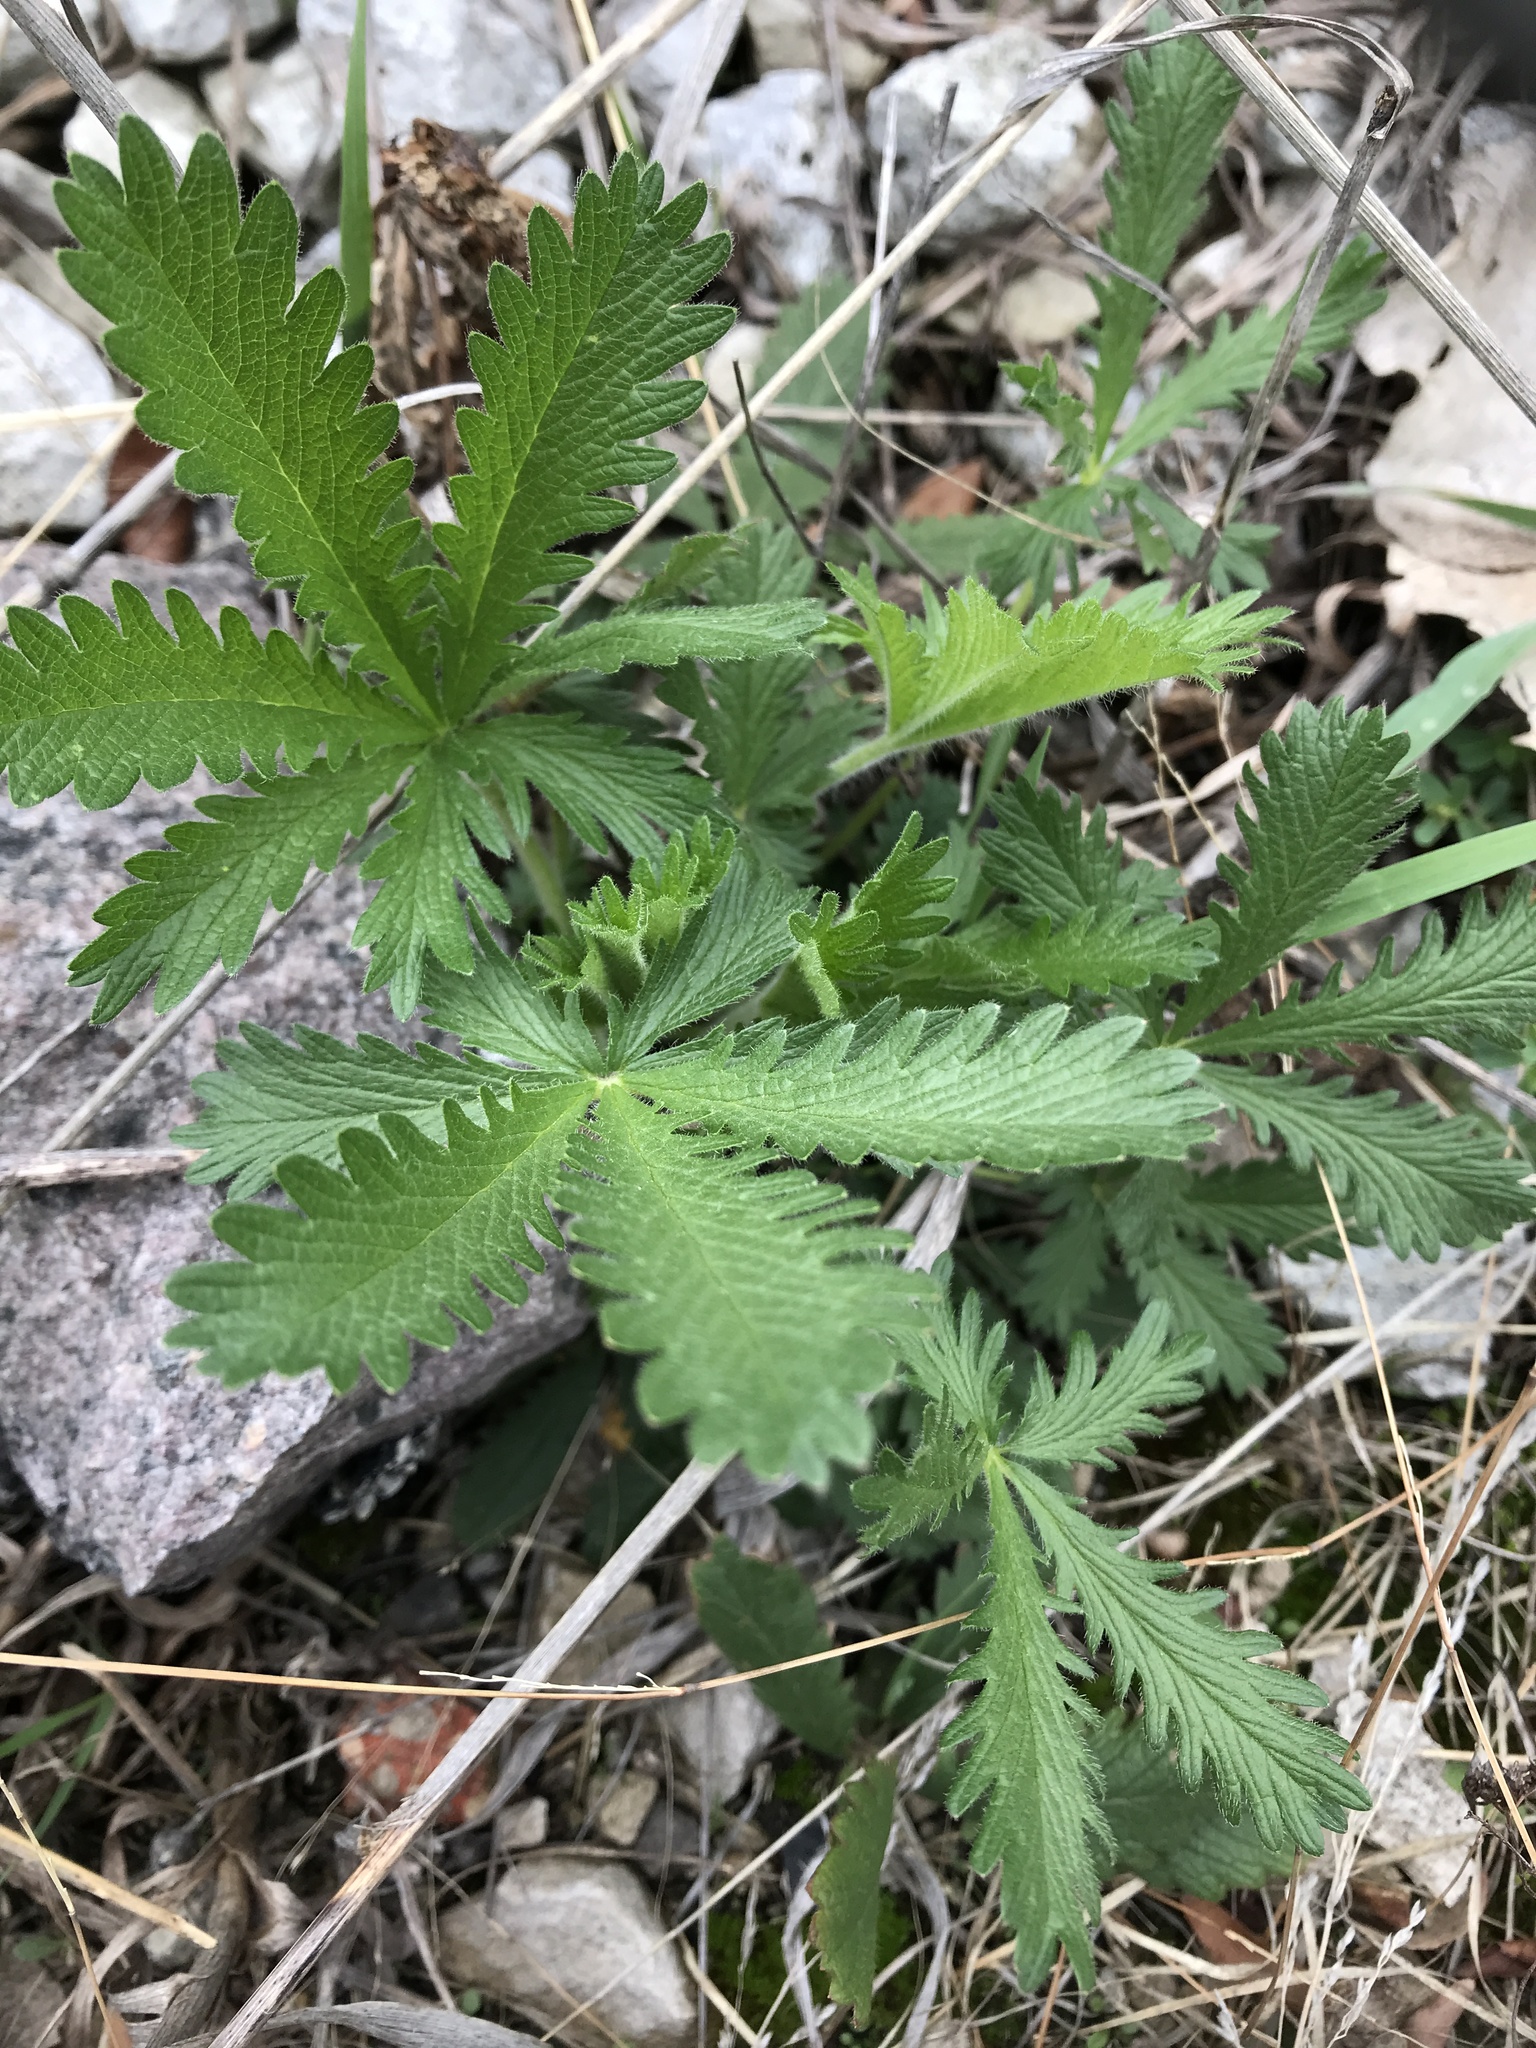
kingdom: Plantae
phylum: Tracheophyta
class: Magnoliopsida
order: Rosales
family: Rosaceae
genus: Potentilla
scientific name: Potentilla recta
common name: Sulphur cinquefoil
